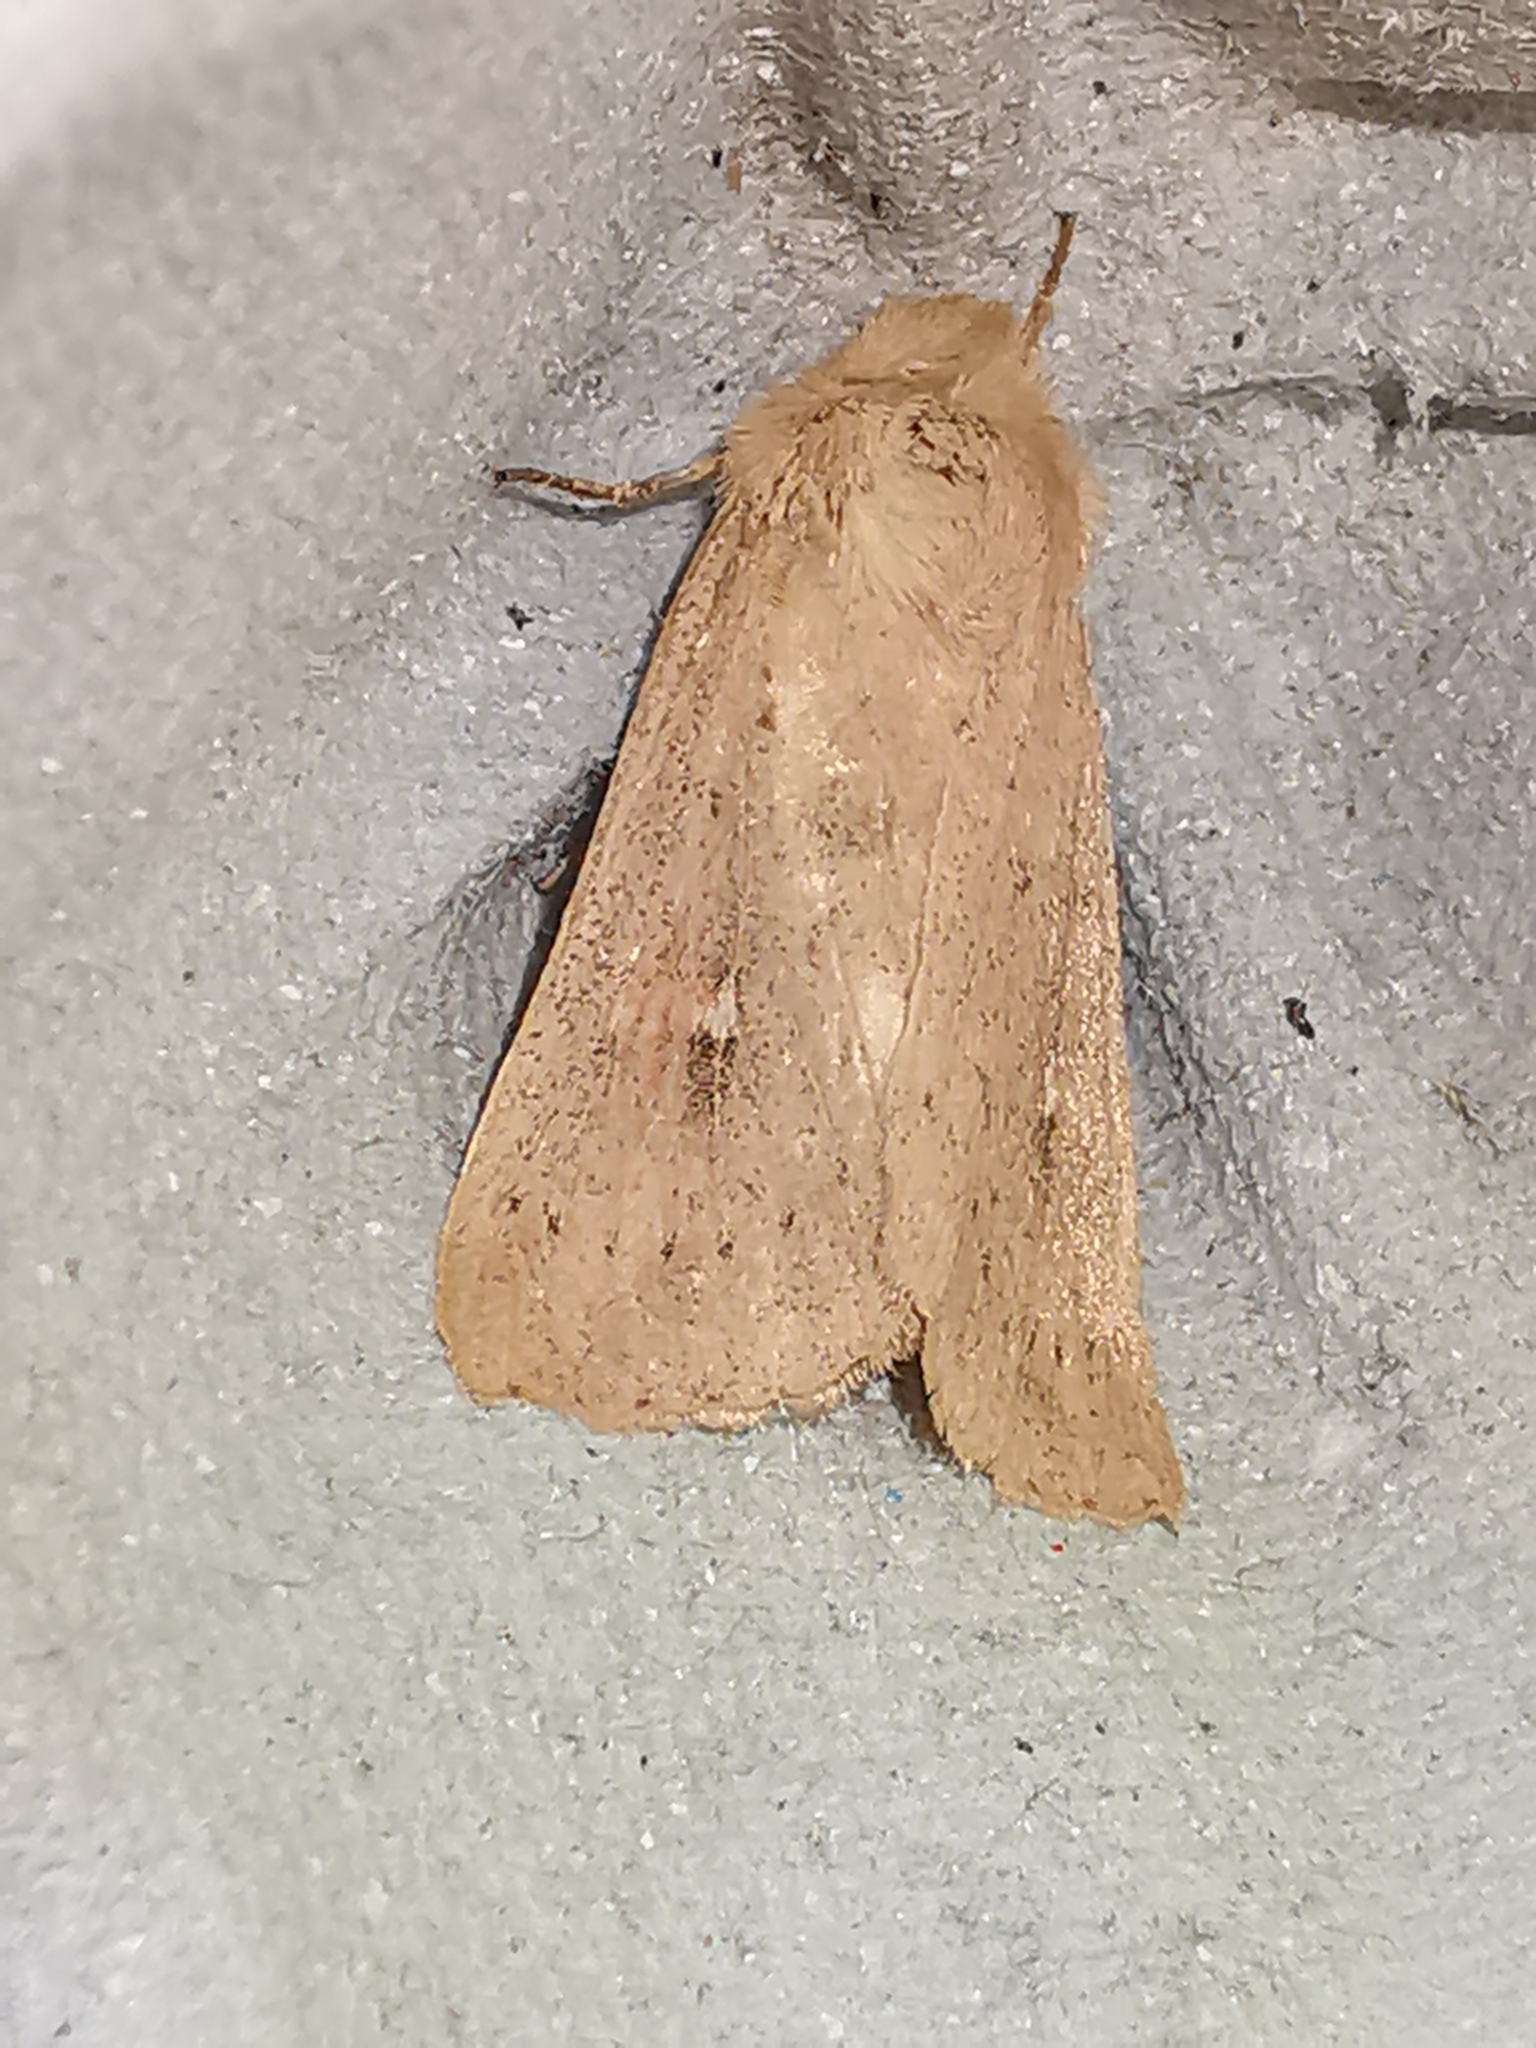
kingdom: Animalia
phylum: Arthropoda
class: Insecta
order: Lepidoptera
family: Noctuidae
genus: Mythimna
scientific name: Mythimna ferrago
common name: Clay
